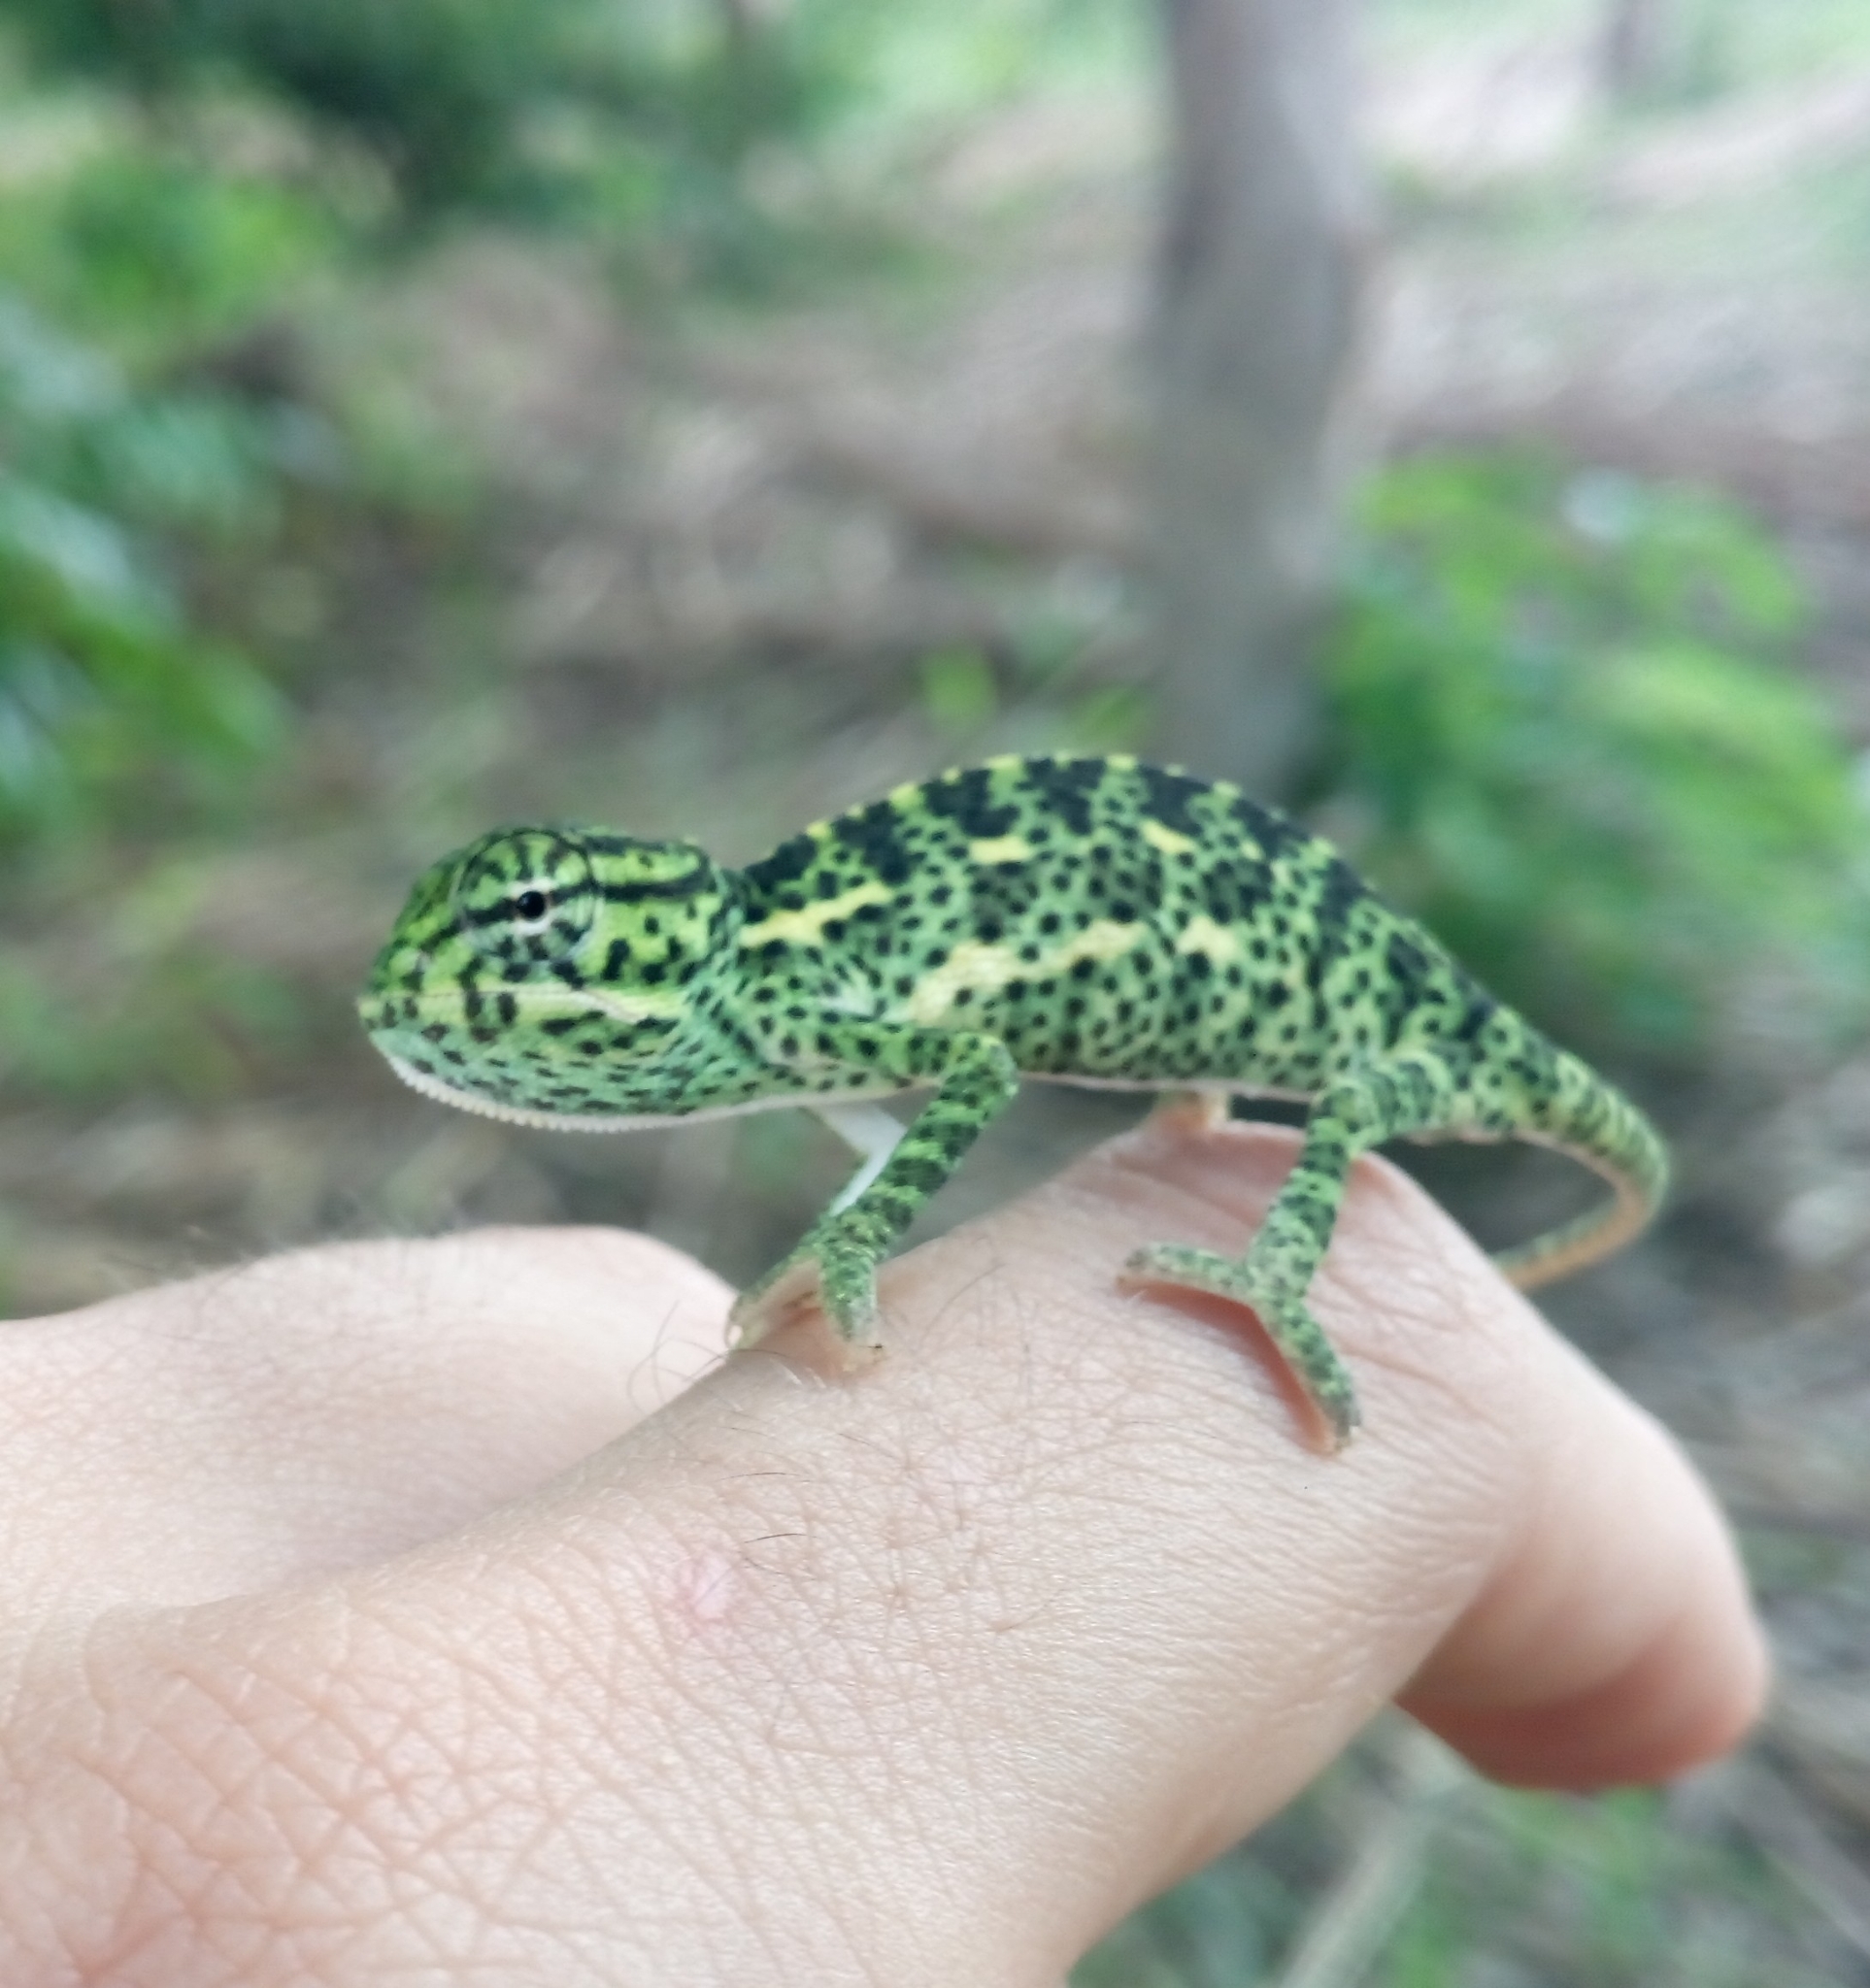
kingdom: Animalia
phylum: Chordata
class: Squamata
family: Chamaeleonidae
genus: Chamaeleo
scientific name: Chamaeleo africanus
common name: African chameleon
